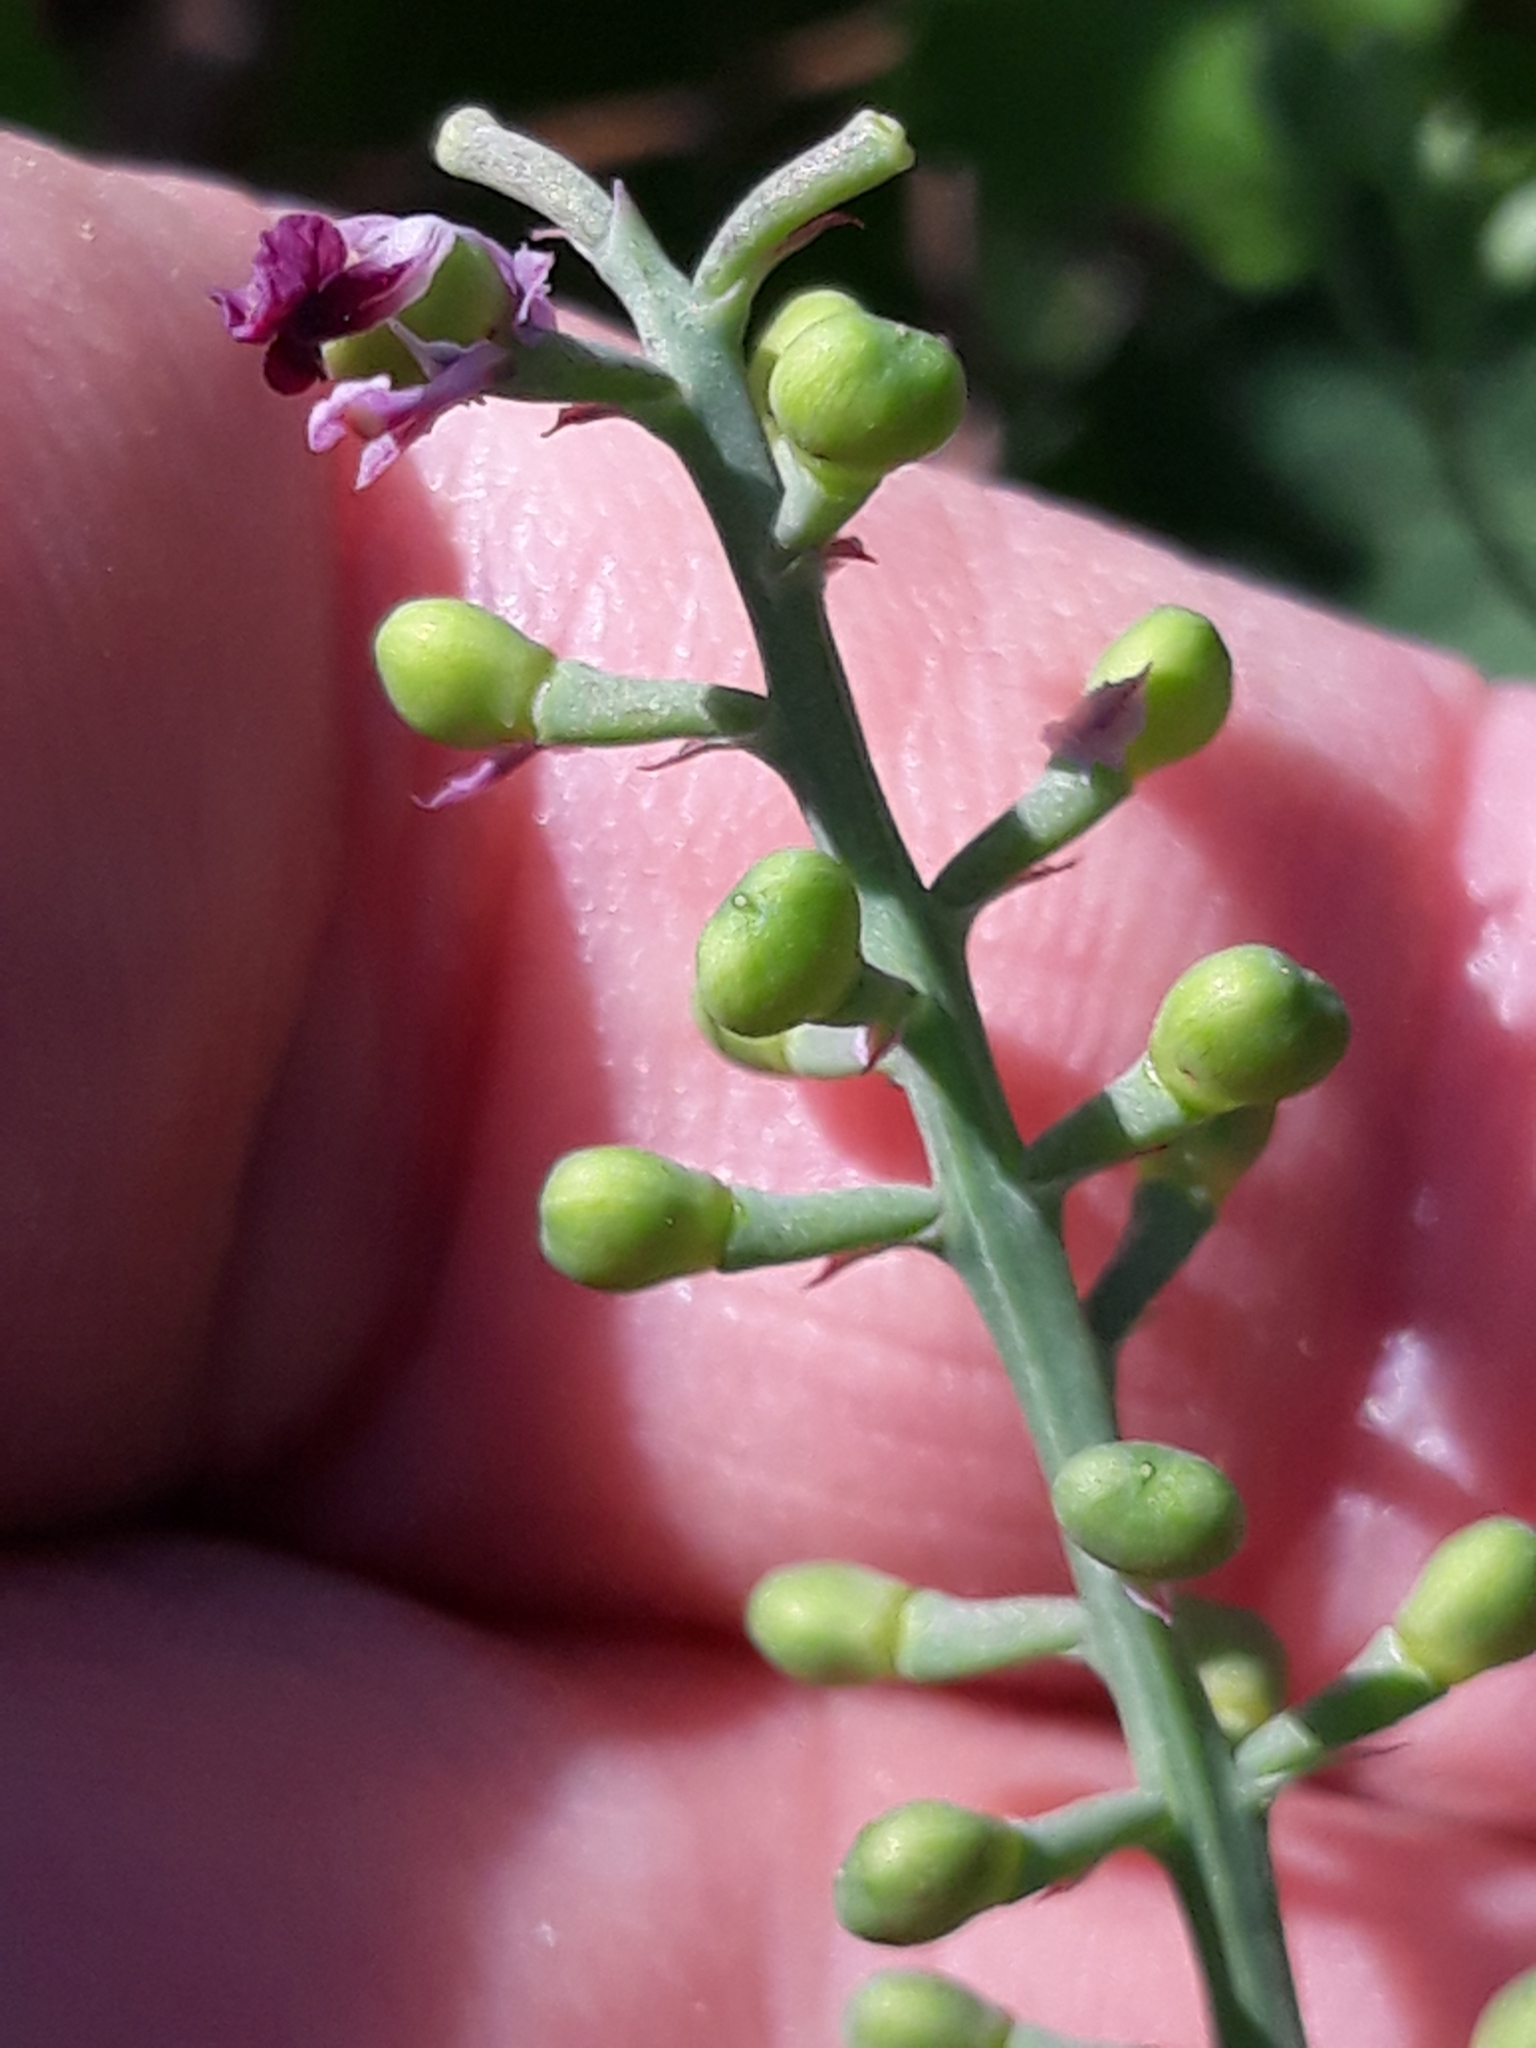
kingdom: Plantae
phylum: Tracheophyta
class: Magnoliopsida
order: Ranunculales
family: Papaveraceae
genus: Fumaria
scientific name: Fumaria officinalis
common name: Common fumitory
